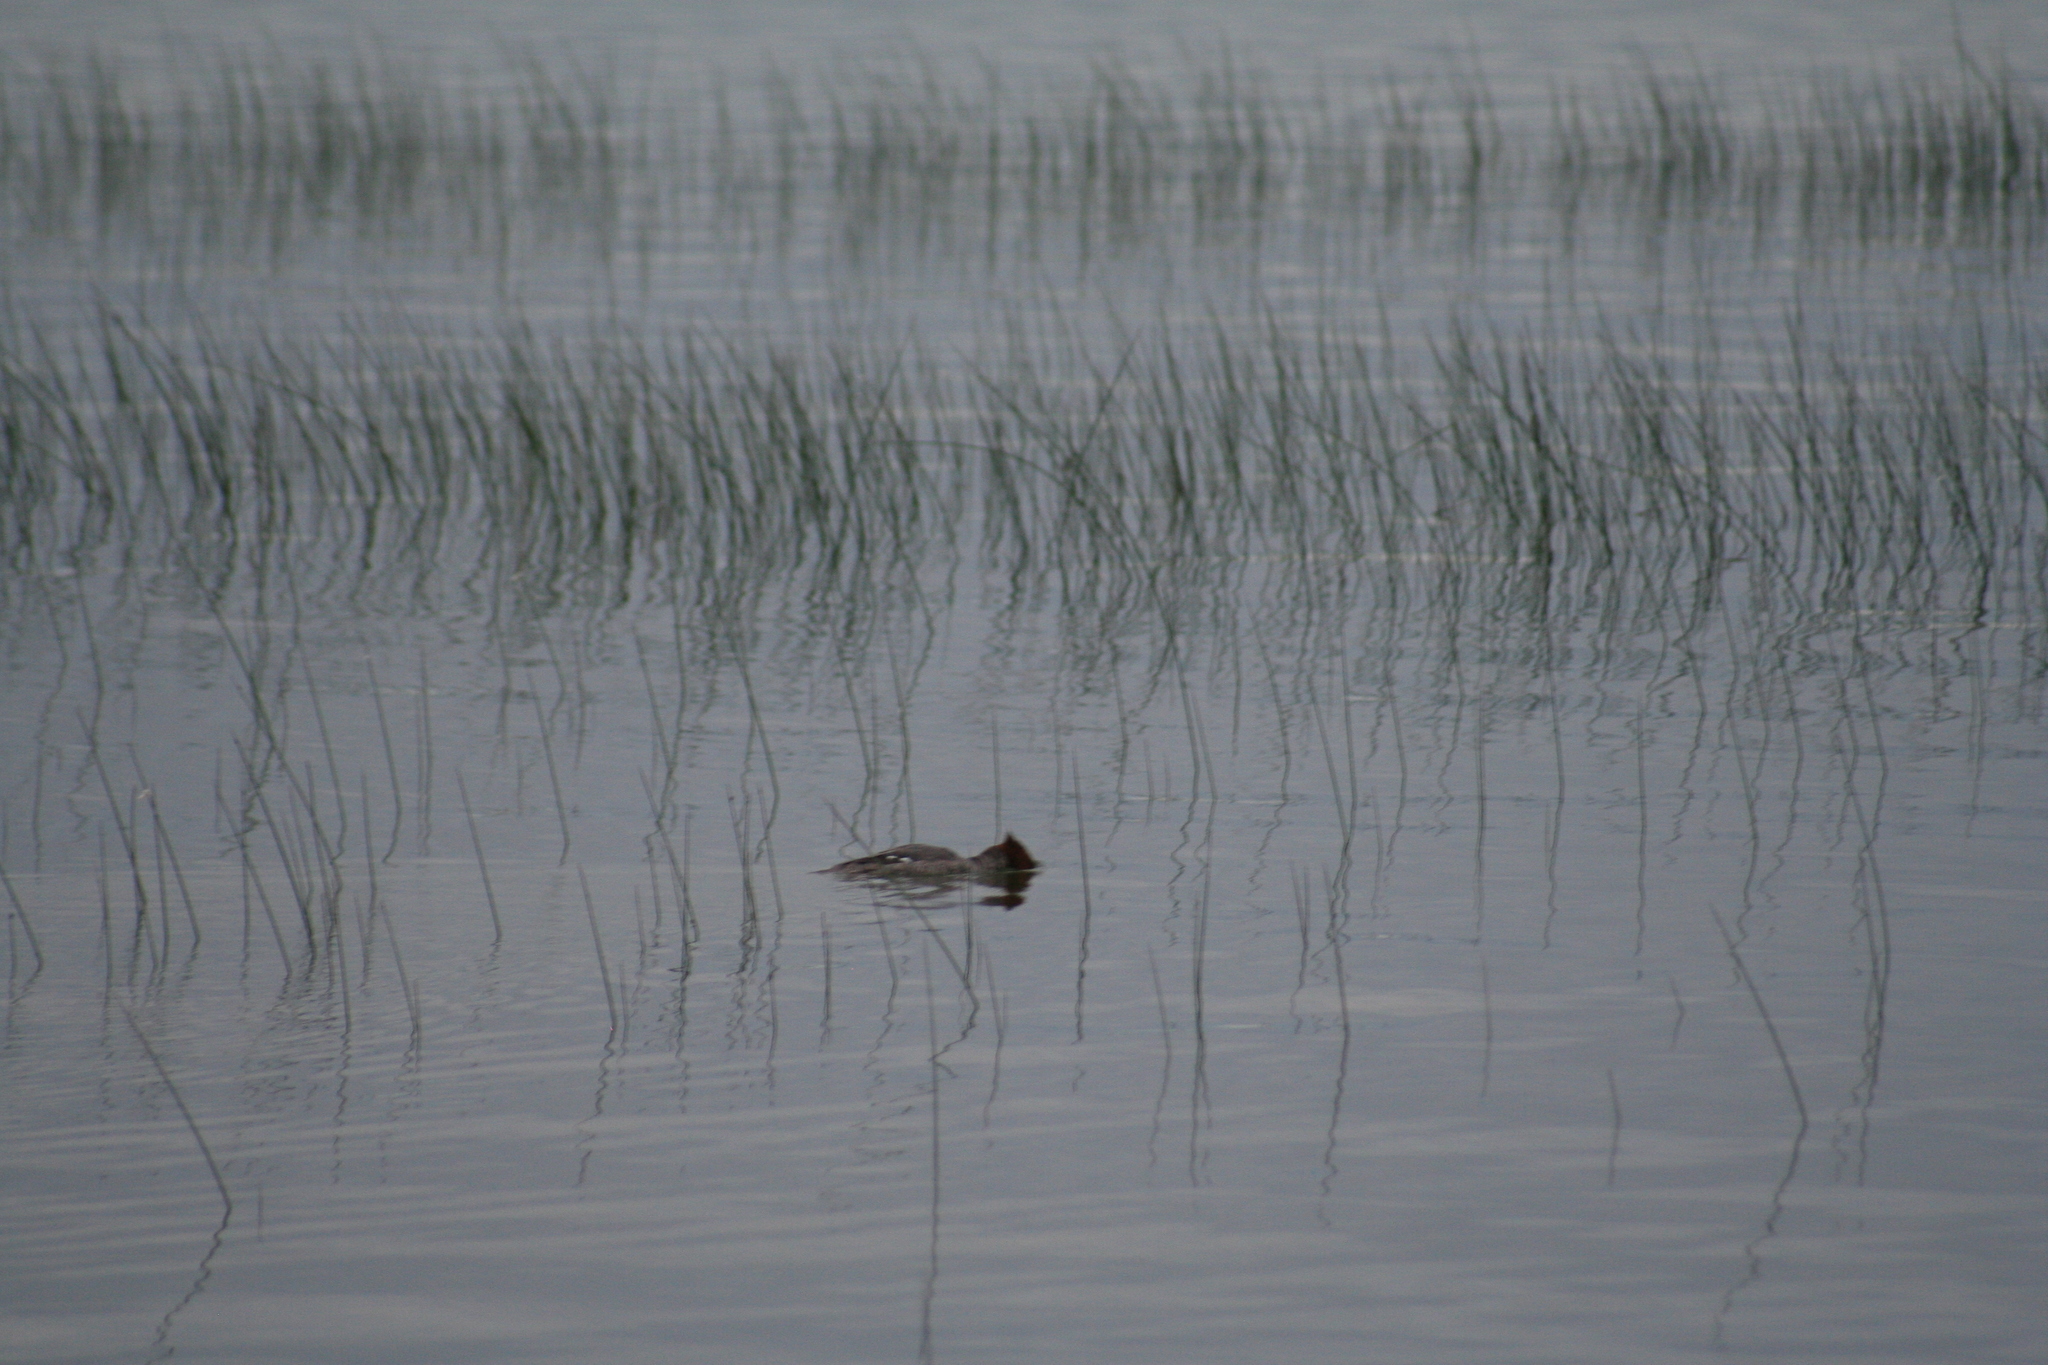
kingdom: Animalia
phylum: Chordata
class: Aves
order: Anseriformes
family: Anatidae
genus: Mergus
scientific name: Mergus merganser
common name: Common merganser
